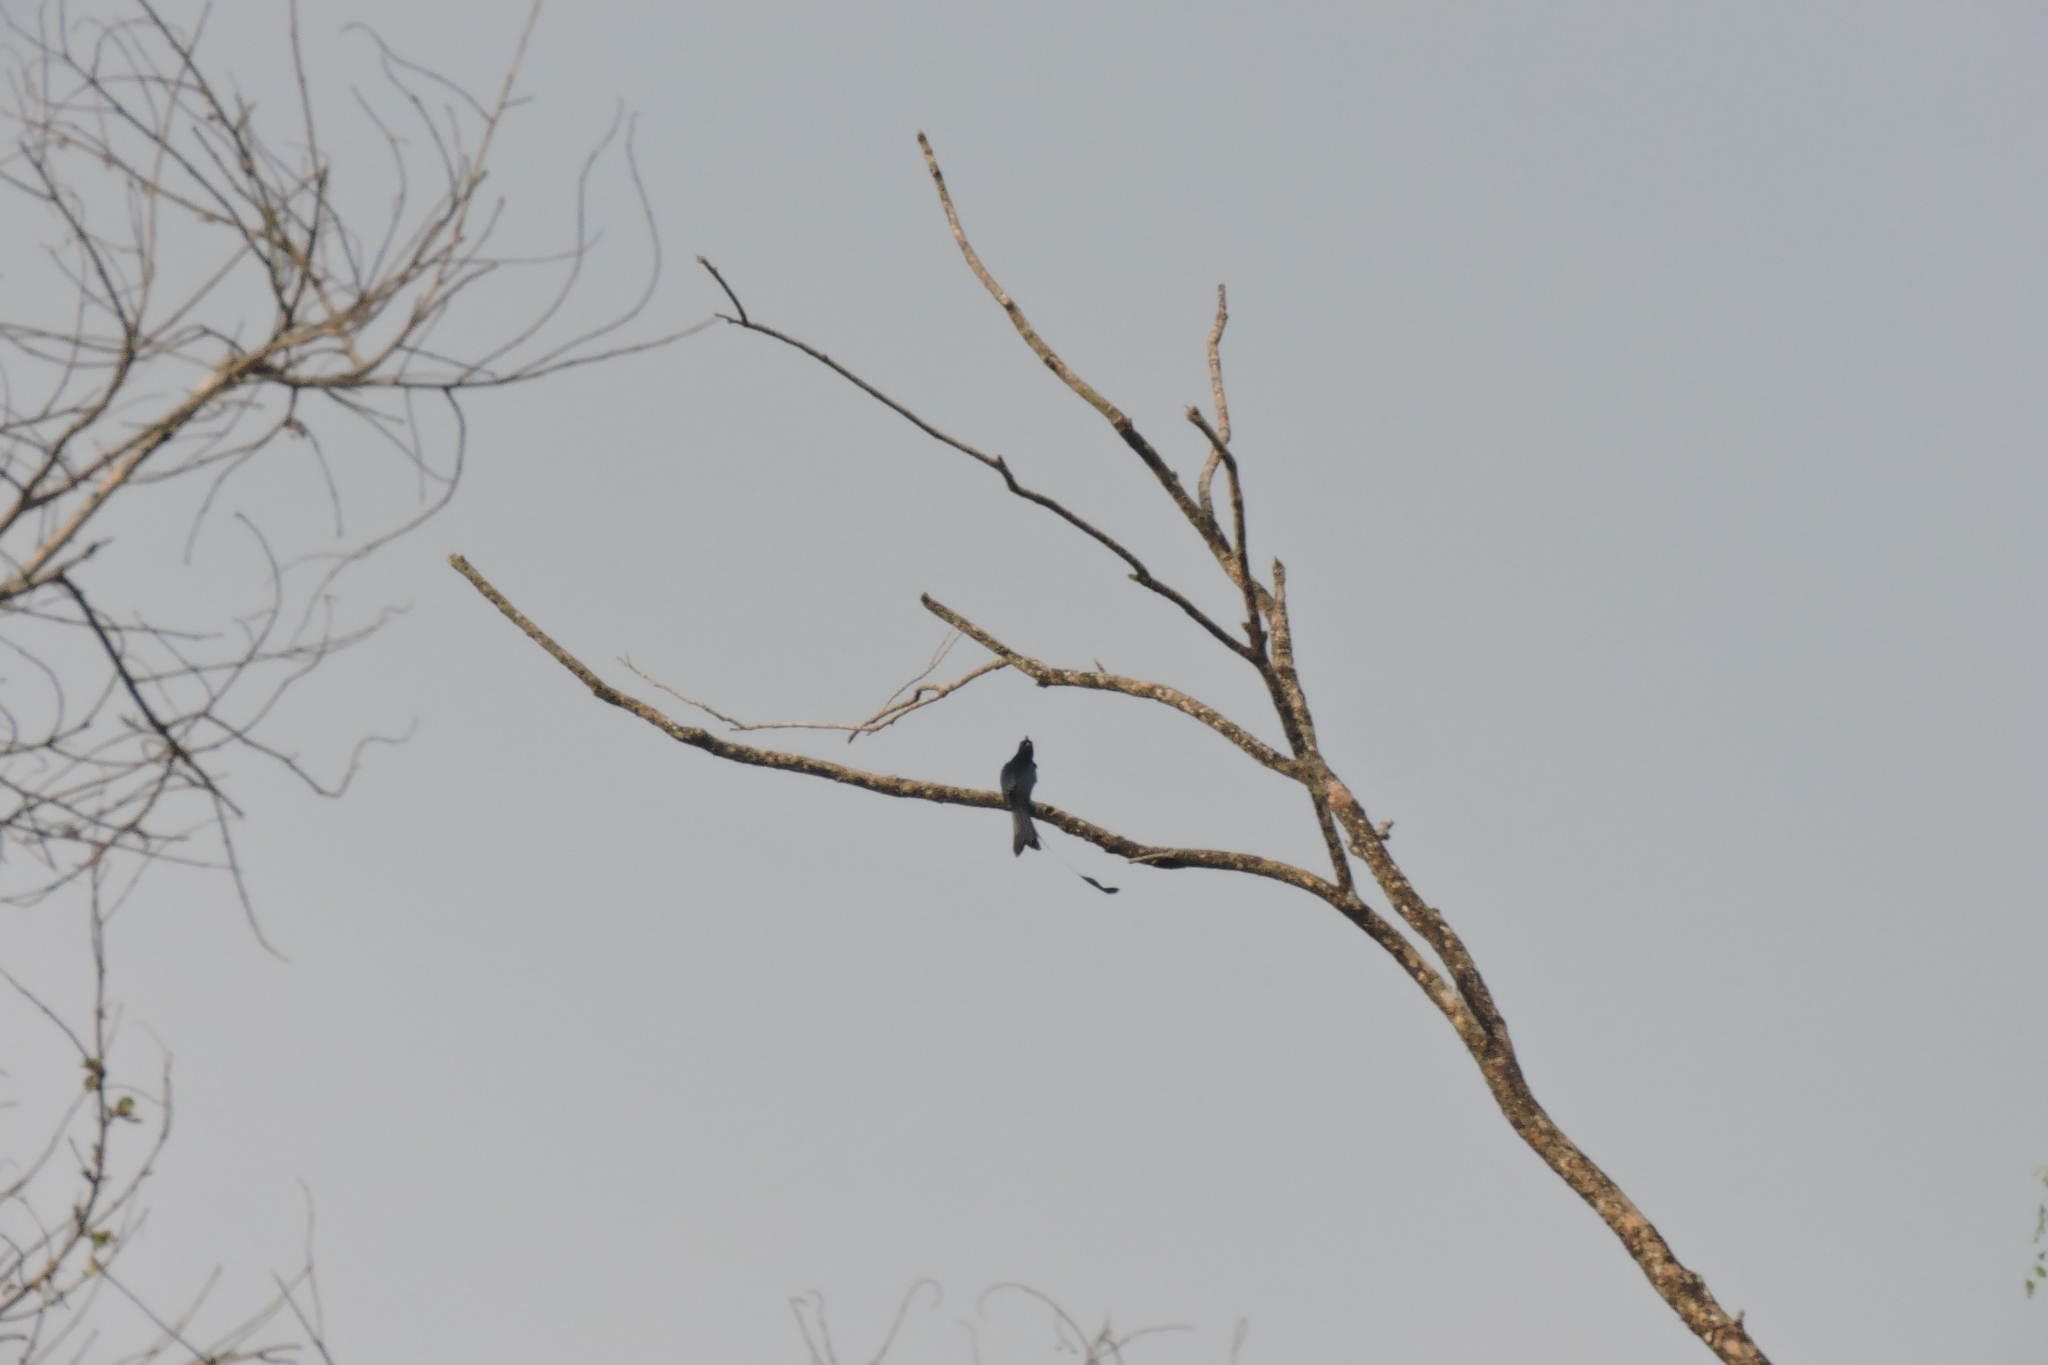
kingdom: Animalia
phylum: Chordata
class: Aves
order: Passeriformes
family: Dicruridae
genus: Dicrurus
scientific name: Dicrurus paradiseus
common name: Greater racket-tailed drongo
